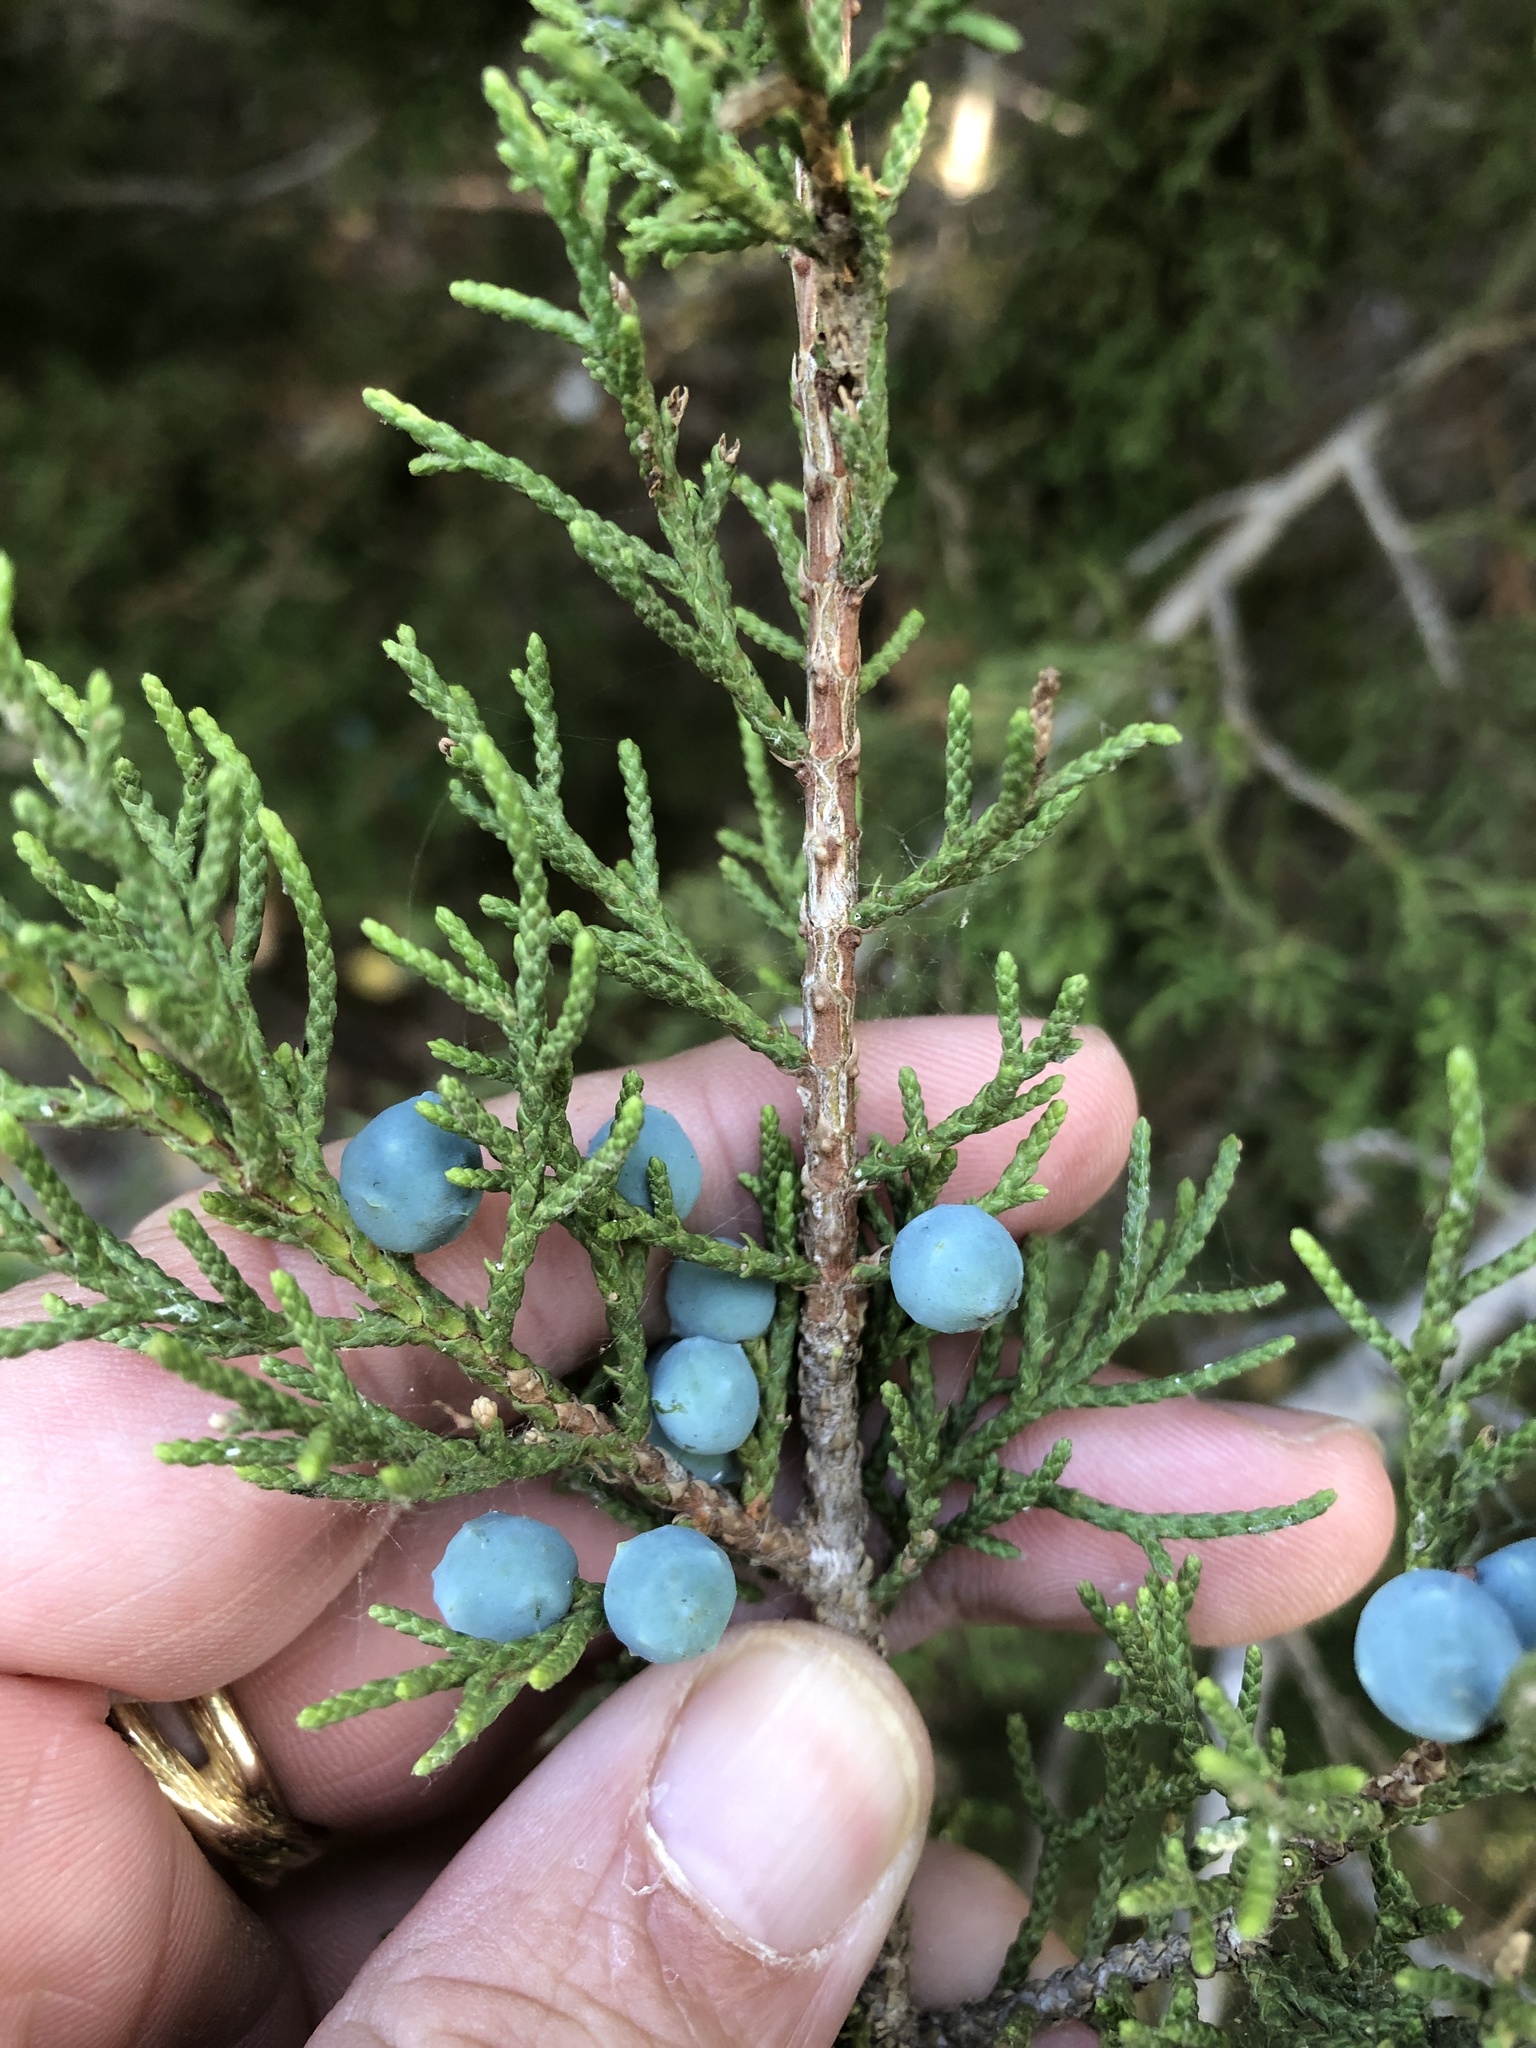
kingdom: Plantae
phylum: Tracheophyta
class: Pinopsida
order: Pinales
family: Cupressaceae
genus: Juniperus
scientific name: Juniperus ashei
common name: Mexican juniper
